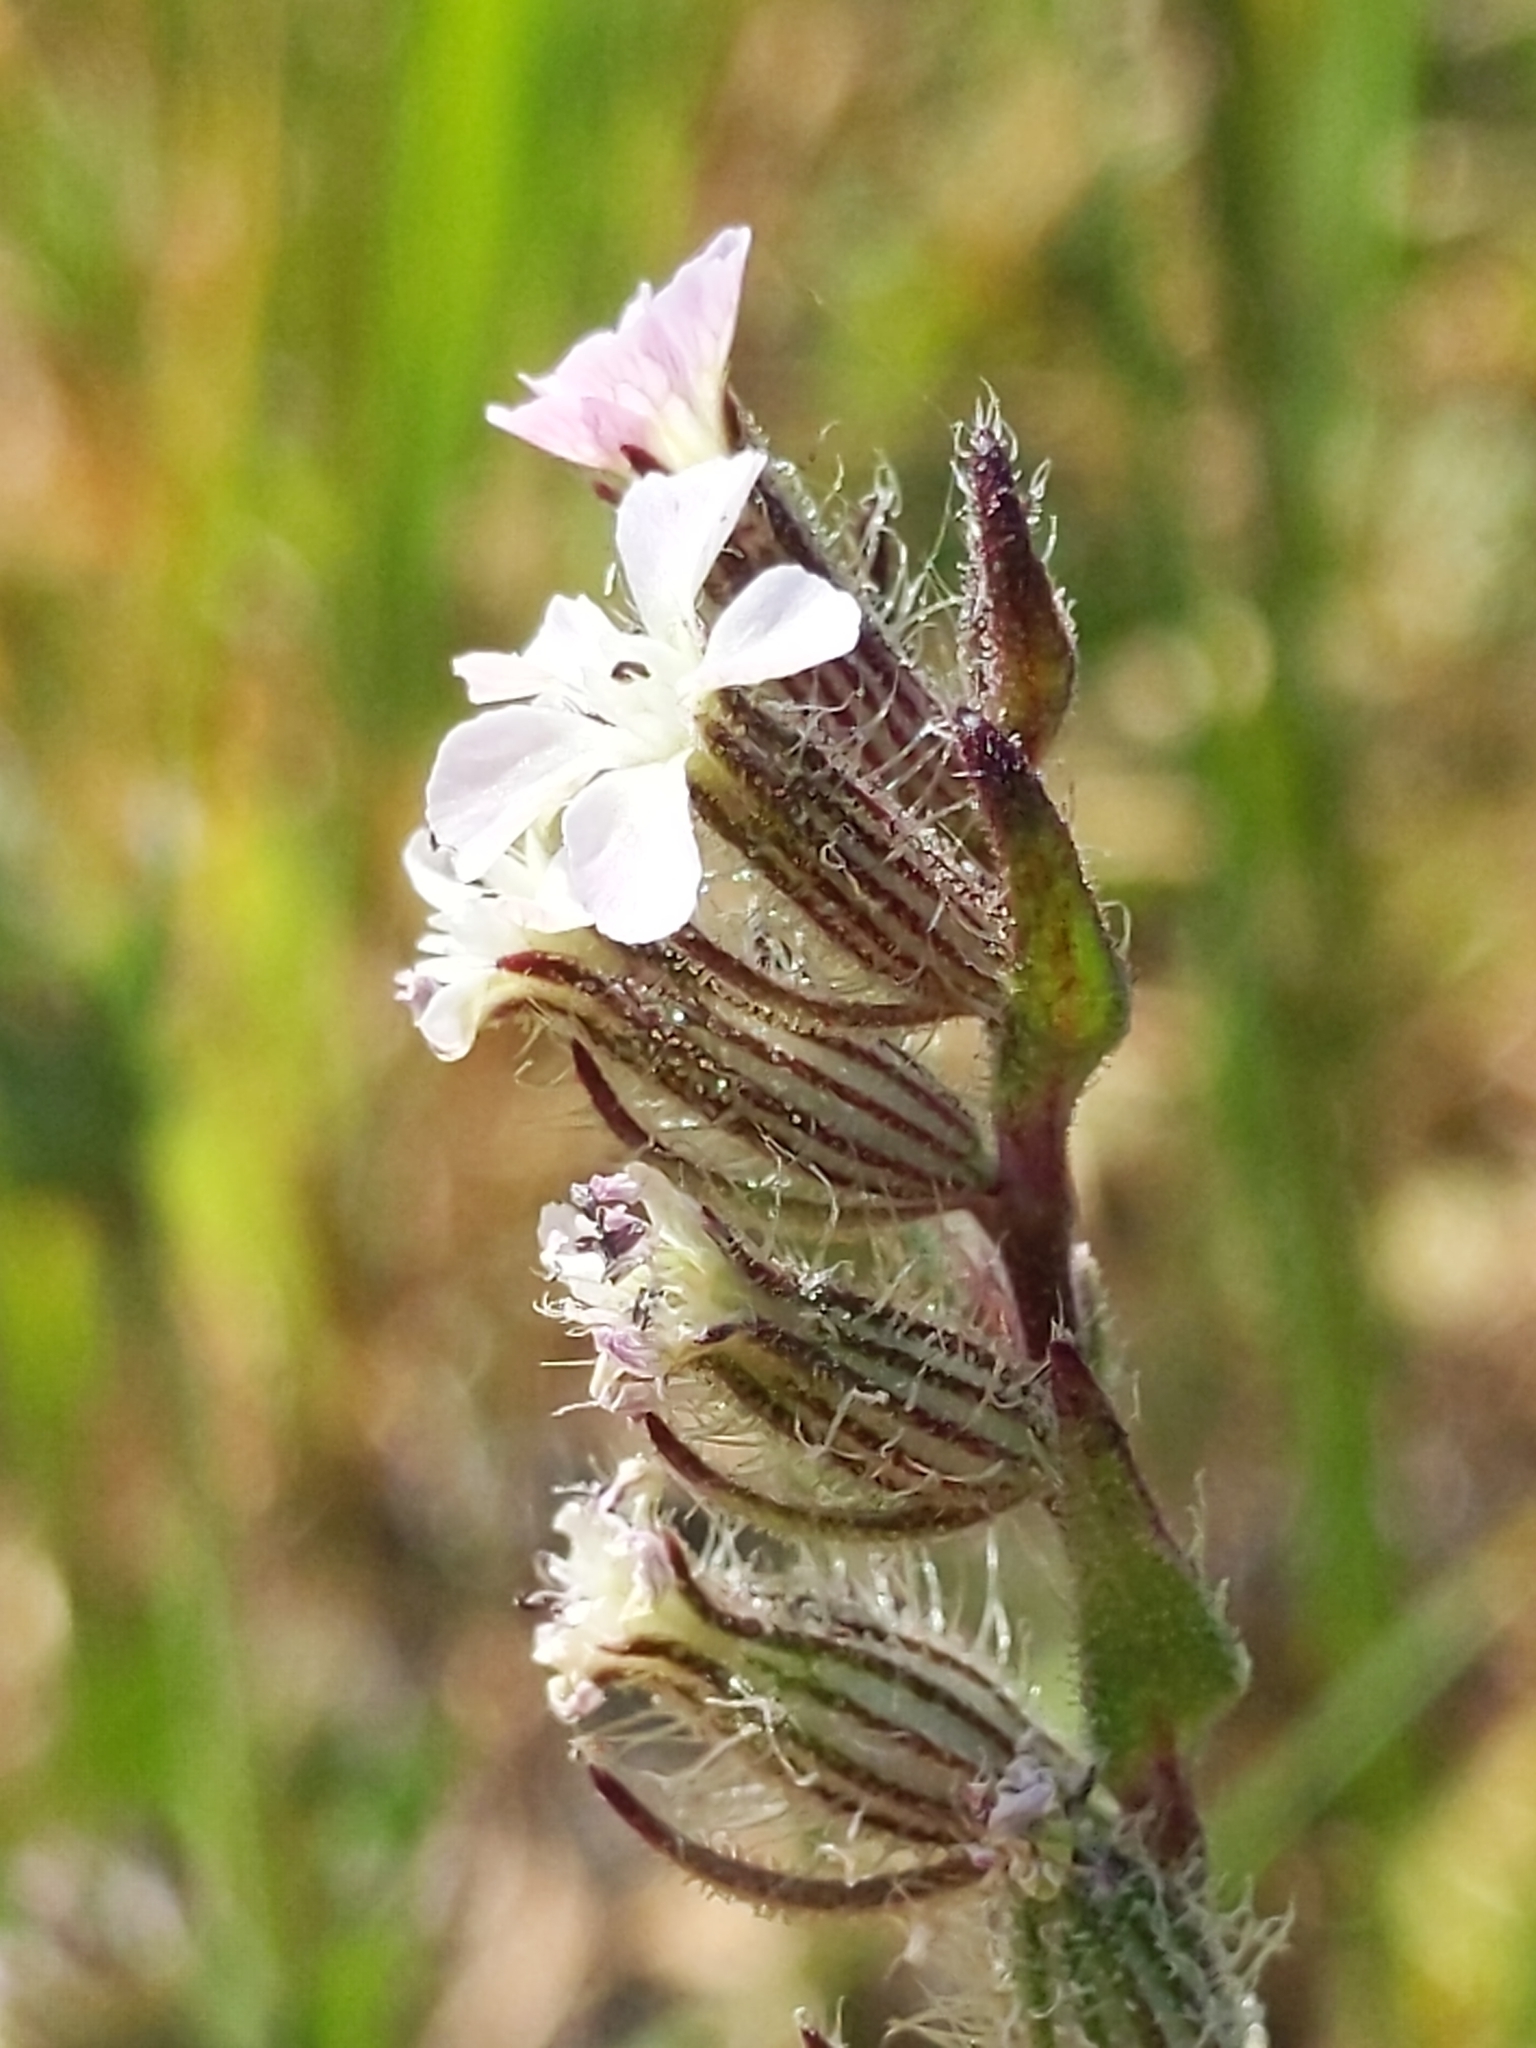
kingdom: Plantae
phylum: Tracheophyta
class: Magnoliopsida
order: Caryophyllales
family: Caryophyllaceae
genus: Silene
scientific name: Silene gallica
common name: Small-flowered catchfly
